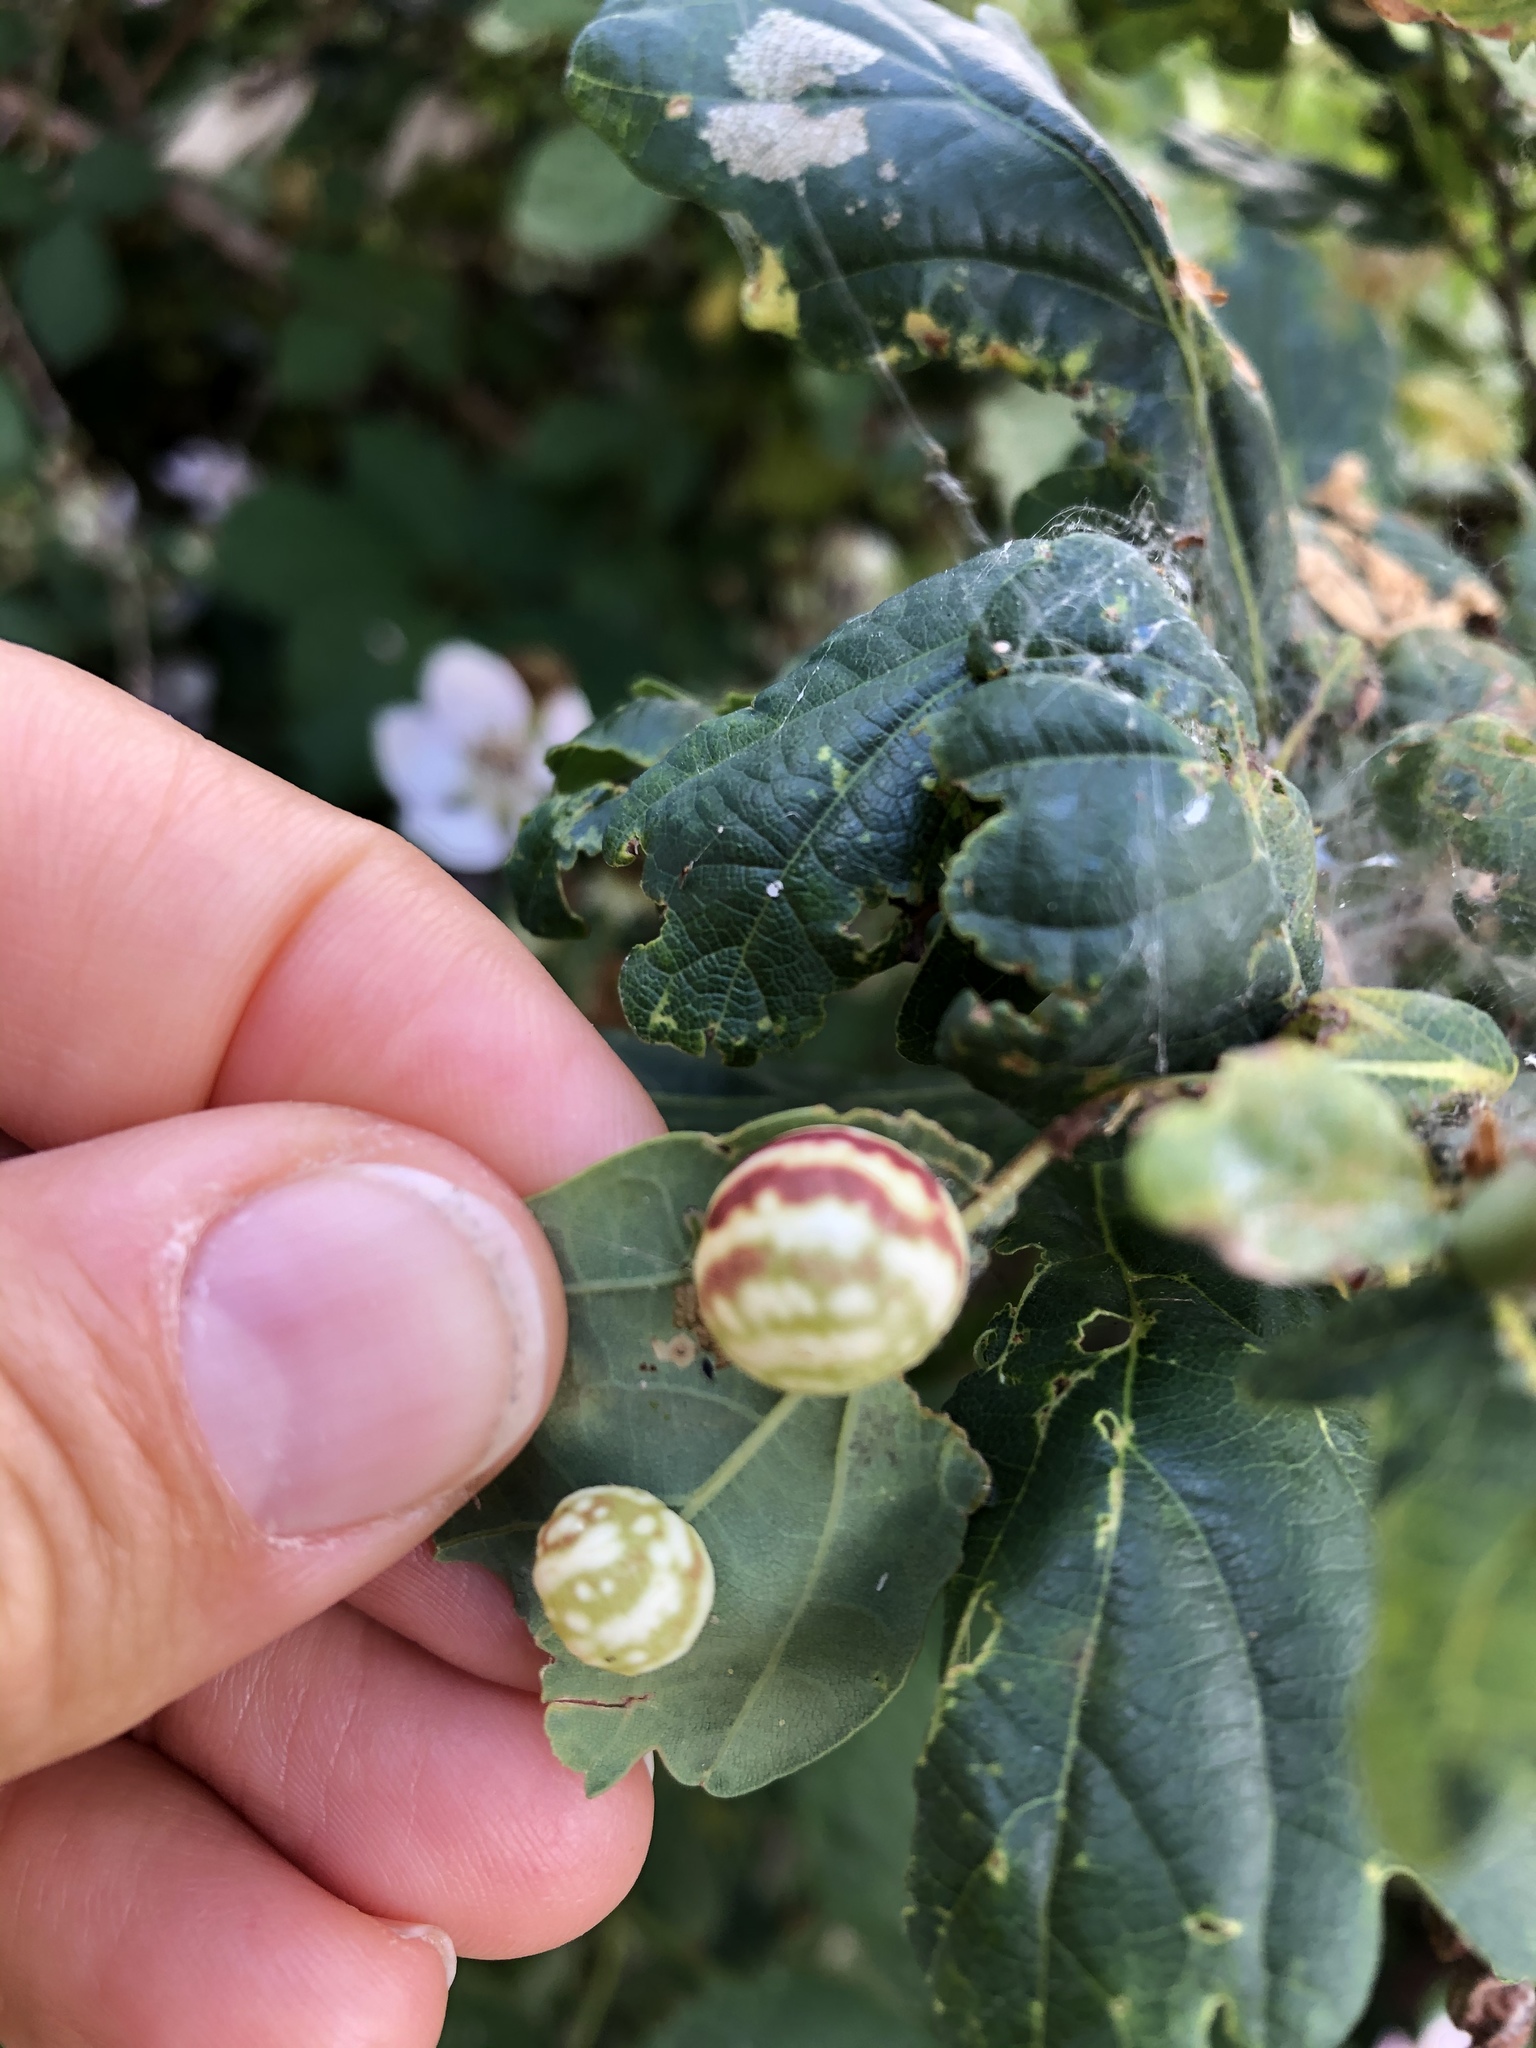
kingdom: Animalia
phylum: Arthropoda
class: Insecta
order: Hymenoptera
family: Cynipidae
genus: Cynips
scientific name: Cynips longiventris
